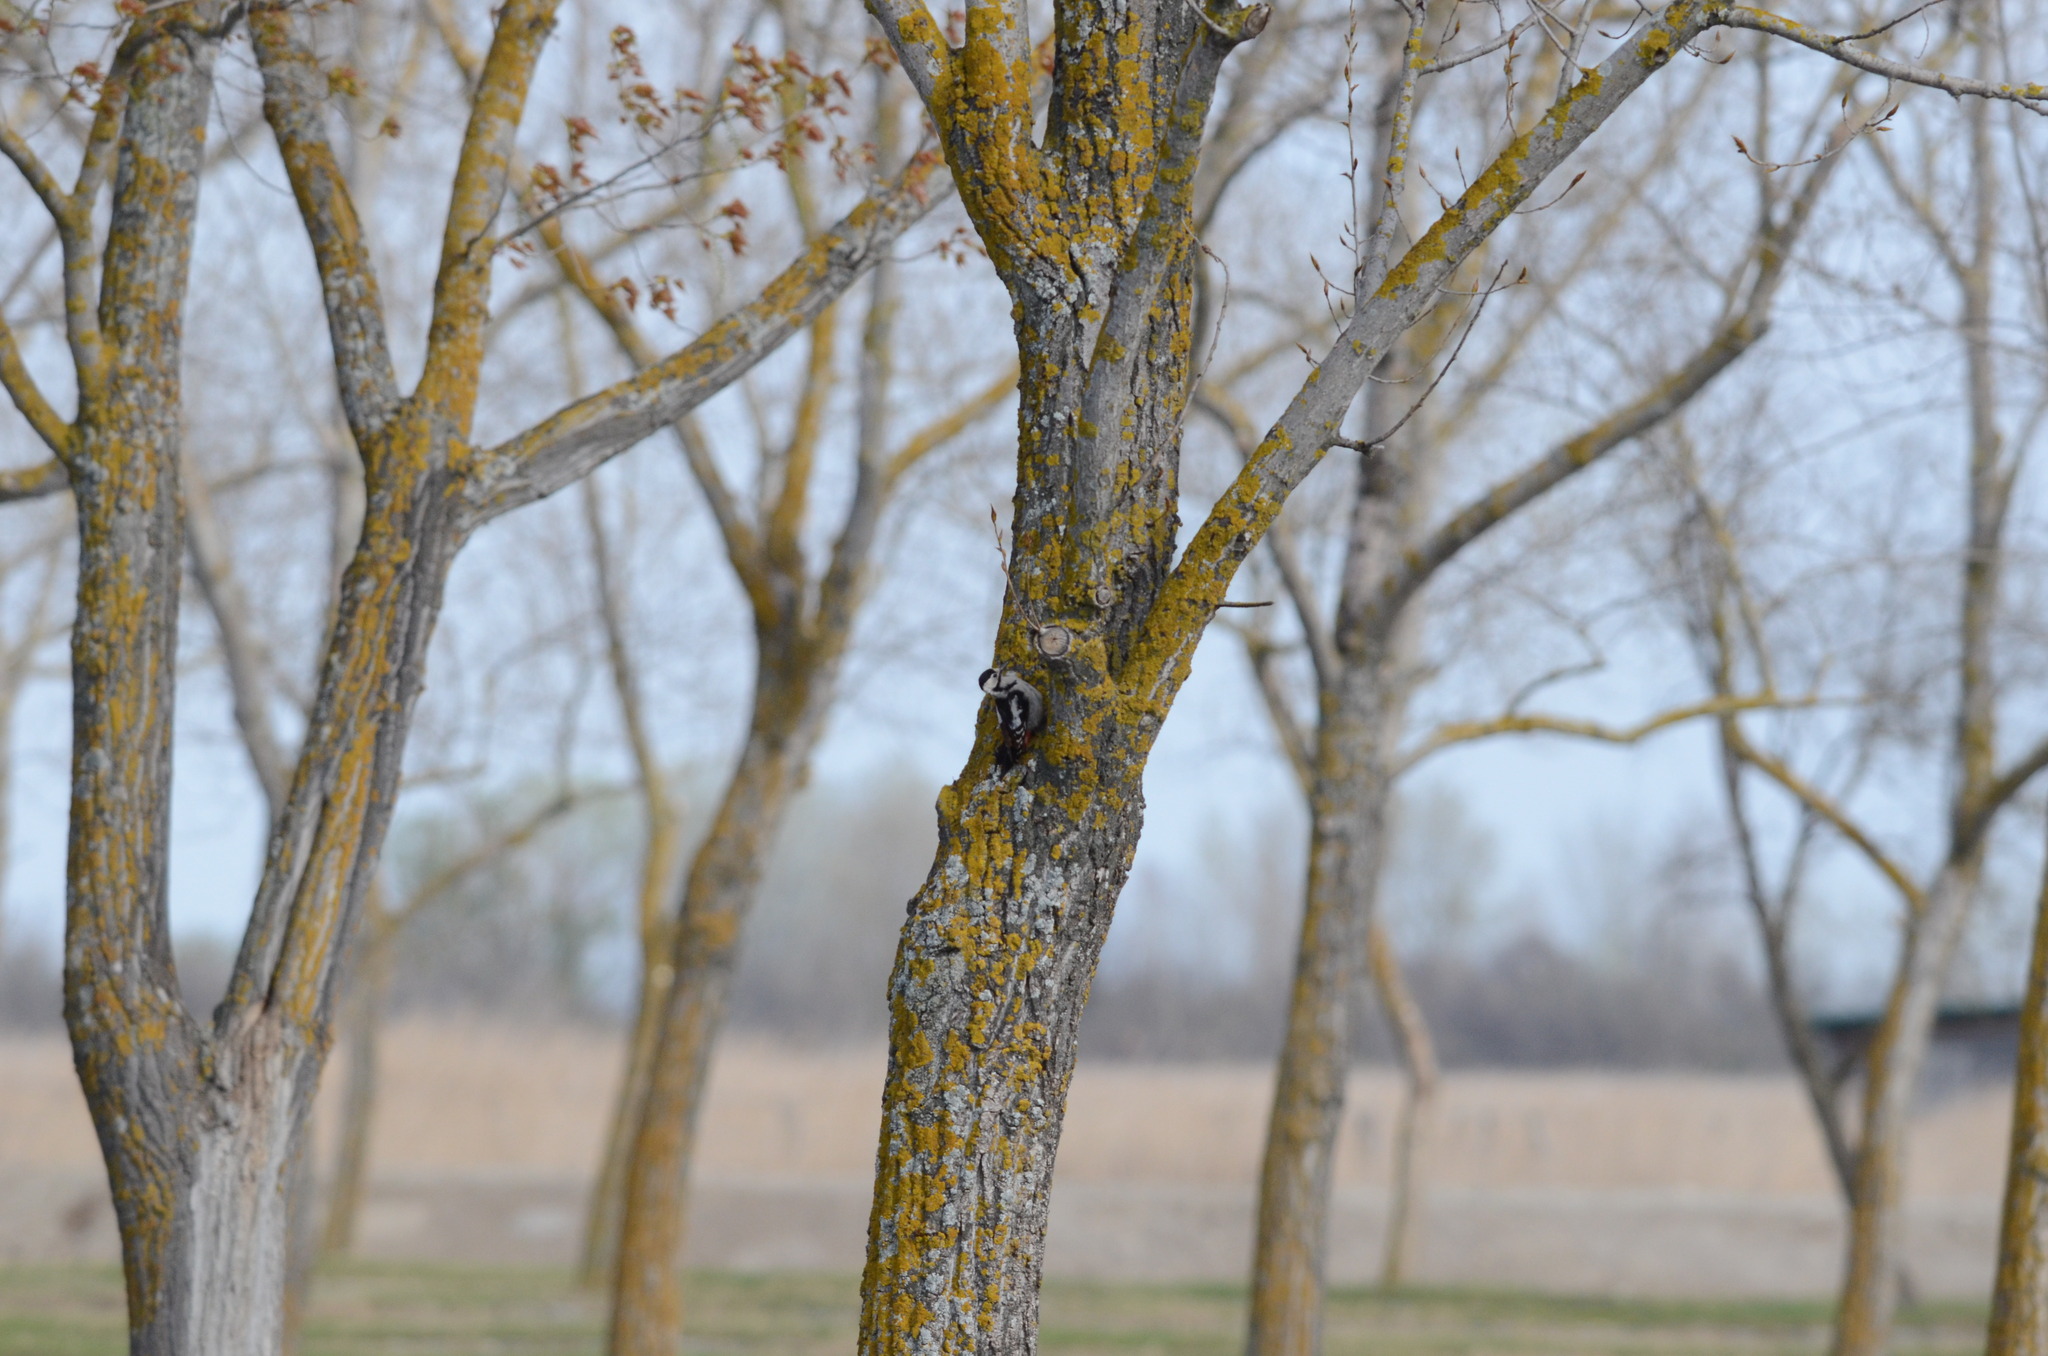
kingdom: Animalia
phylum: Chordata
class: Aves
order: Piciformes
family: Picidae
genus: Dendrocopos
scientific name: Dendrocopos syriacus
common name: Syrian woodpecker
